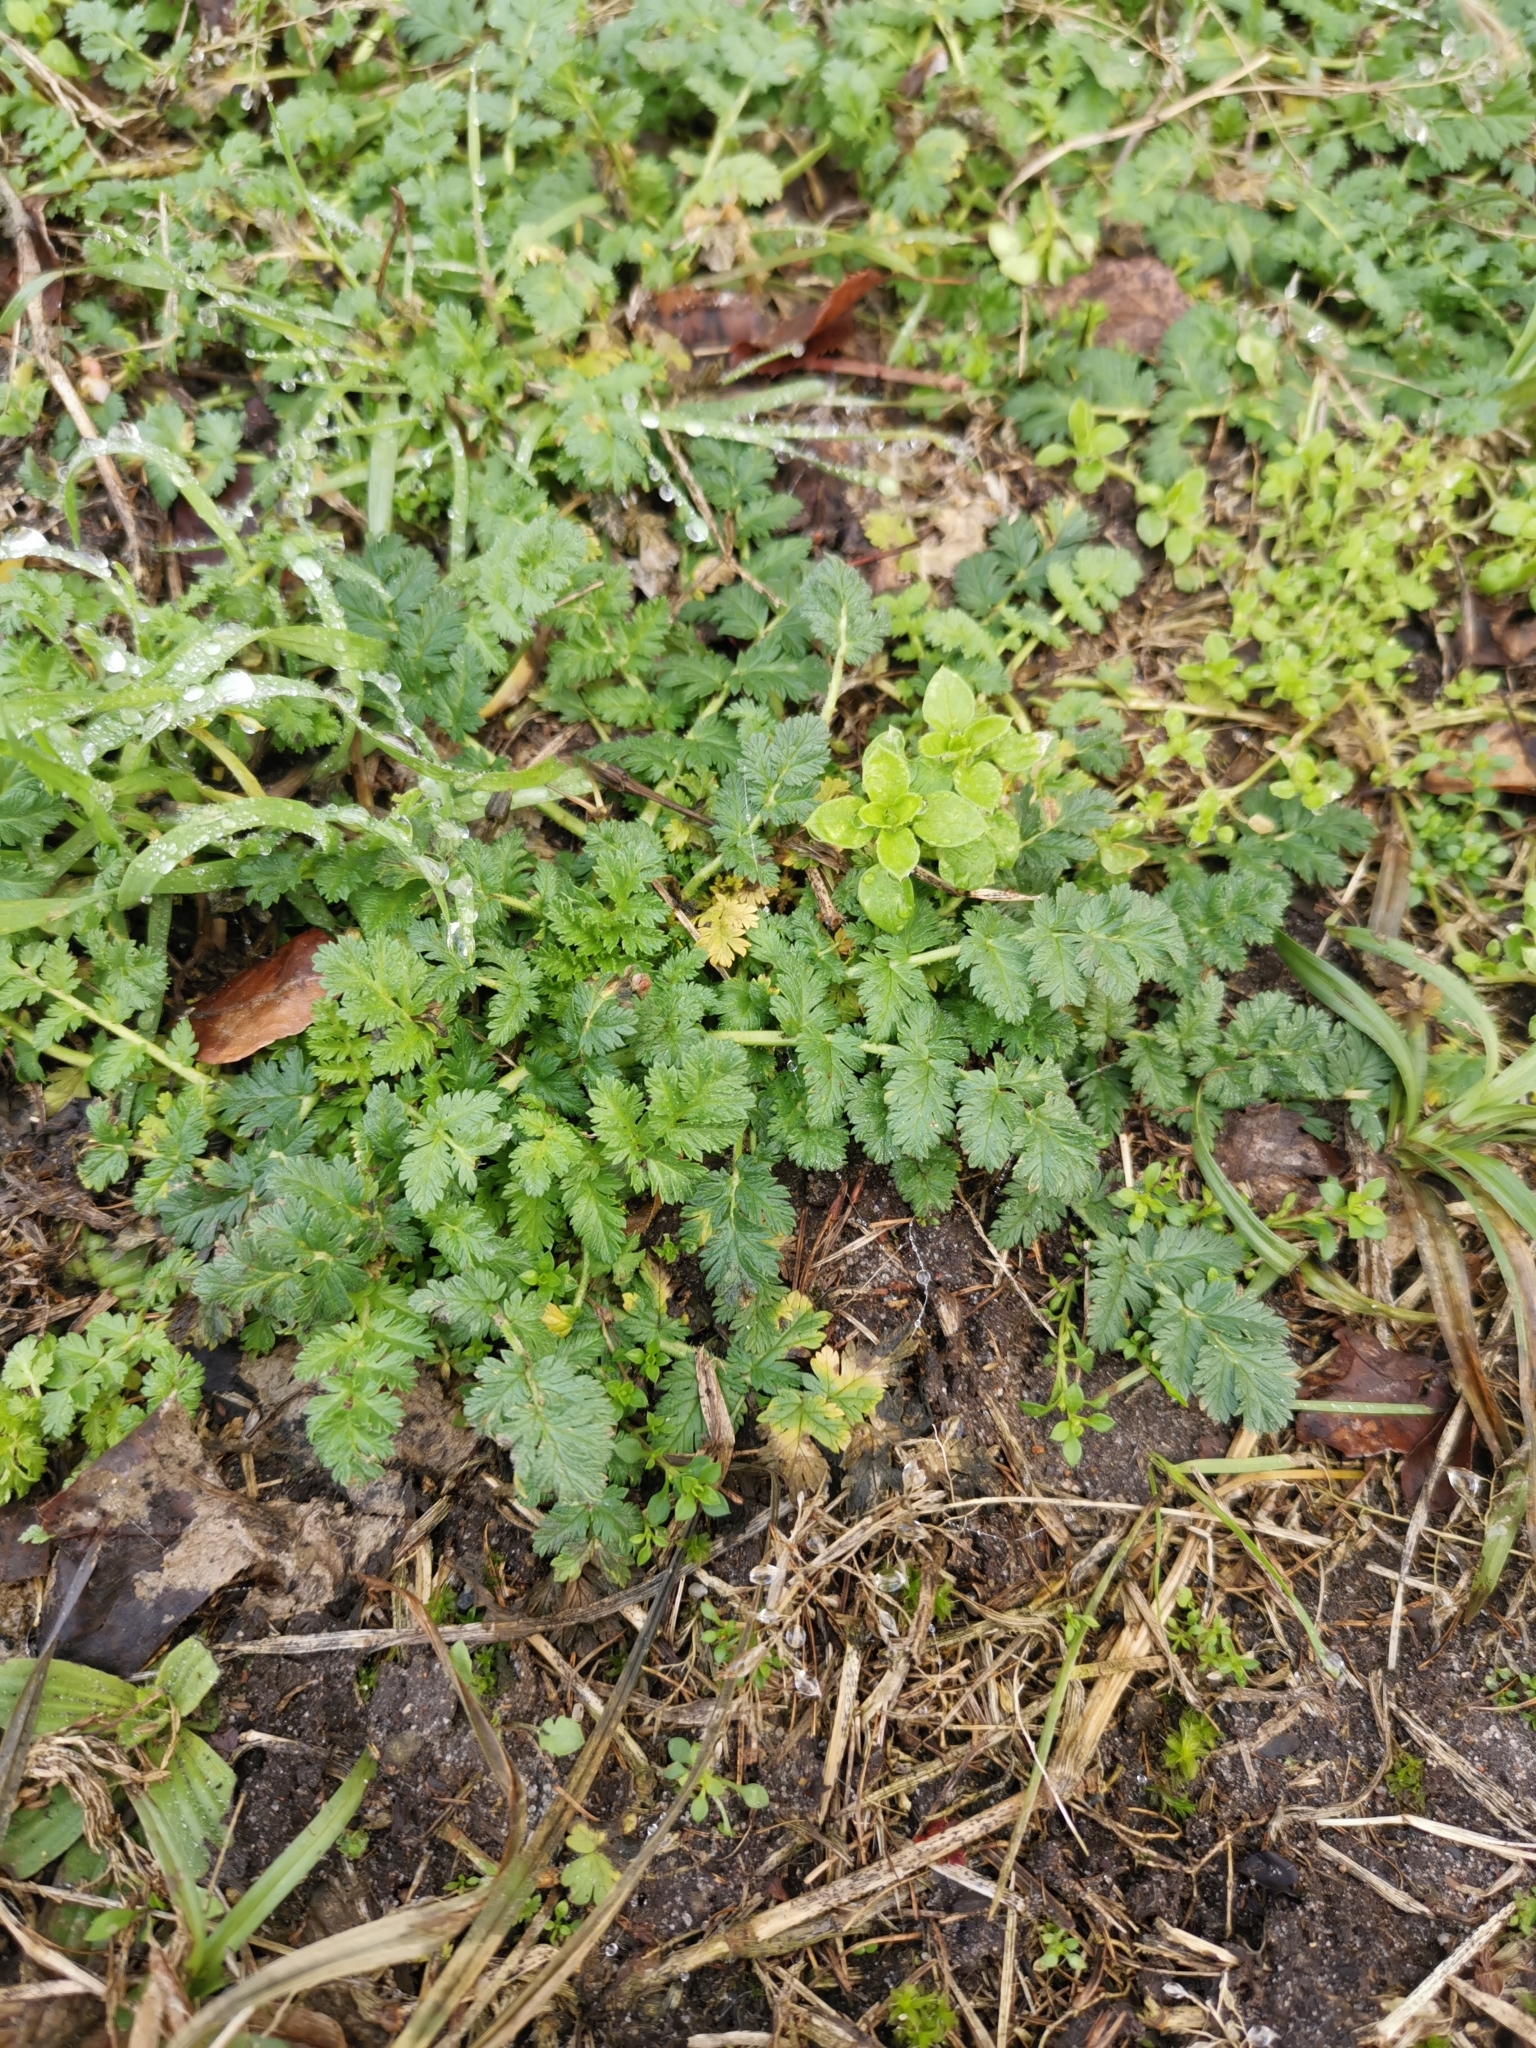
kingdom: Plantae
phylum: Tracheophyta
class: Magnoliopsida
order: Geraniales
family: Geraniaceae
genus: Erodium
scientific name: Erodium cicutarium
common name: Common stork's-bill
